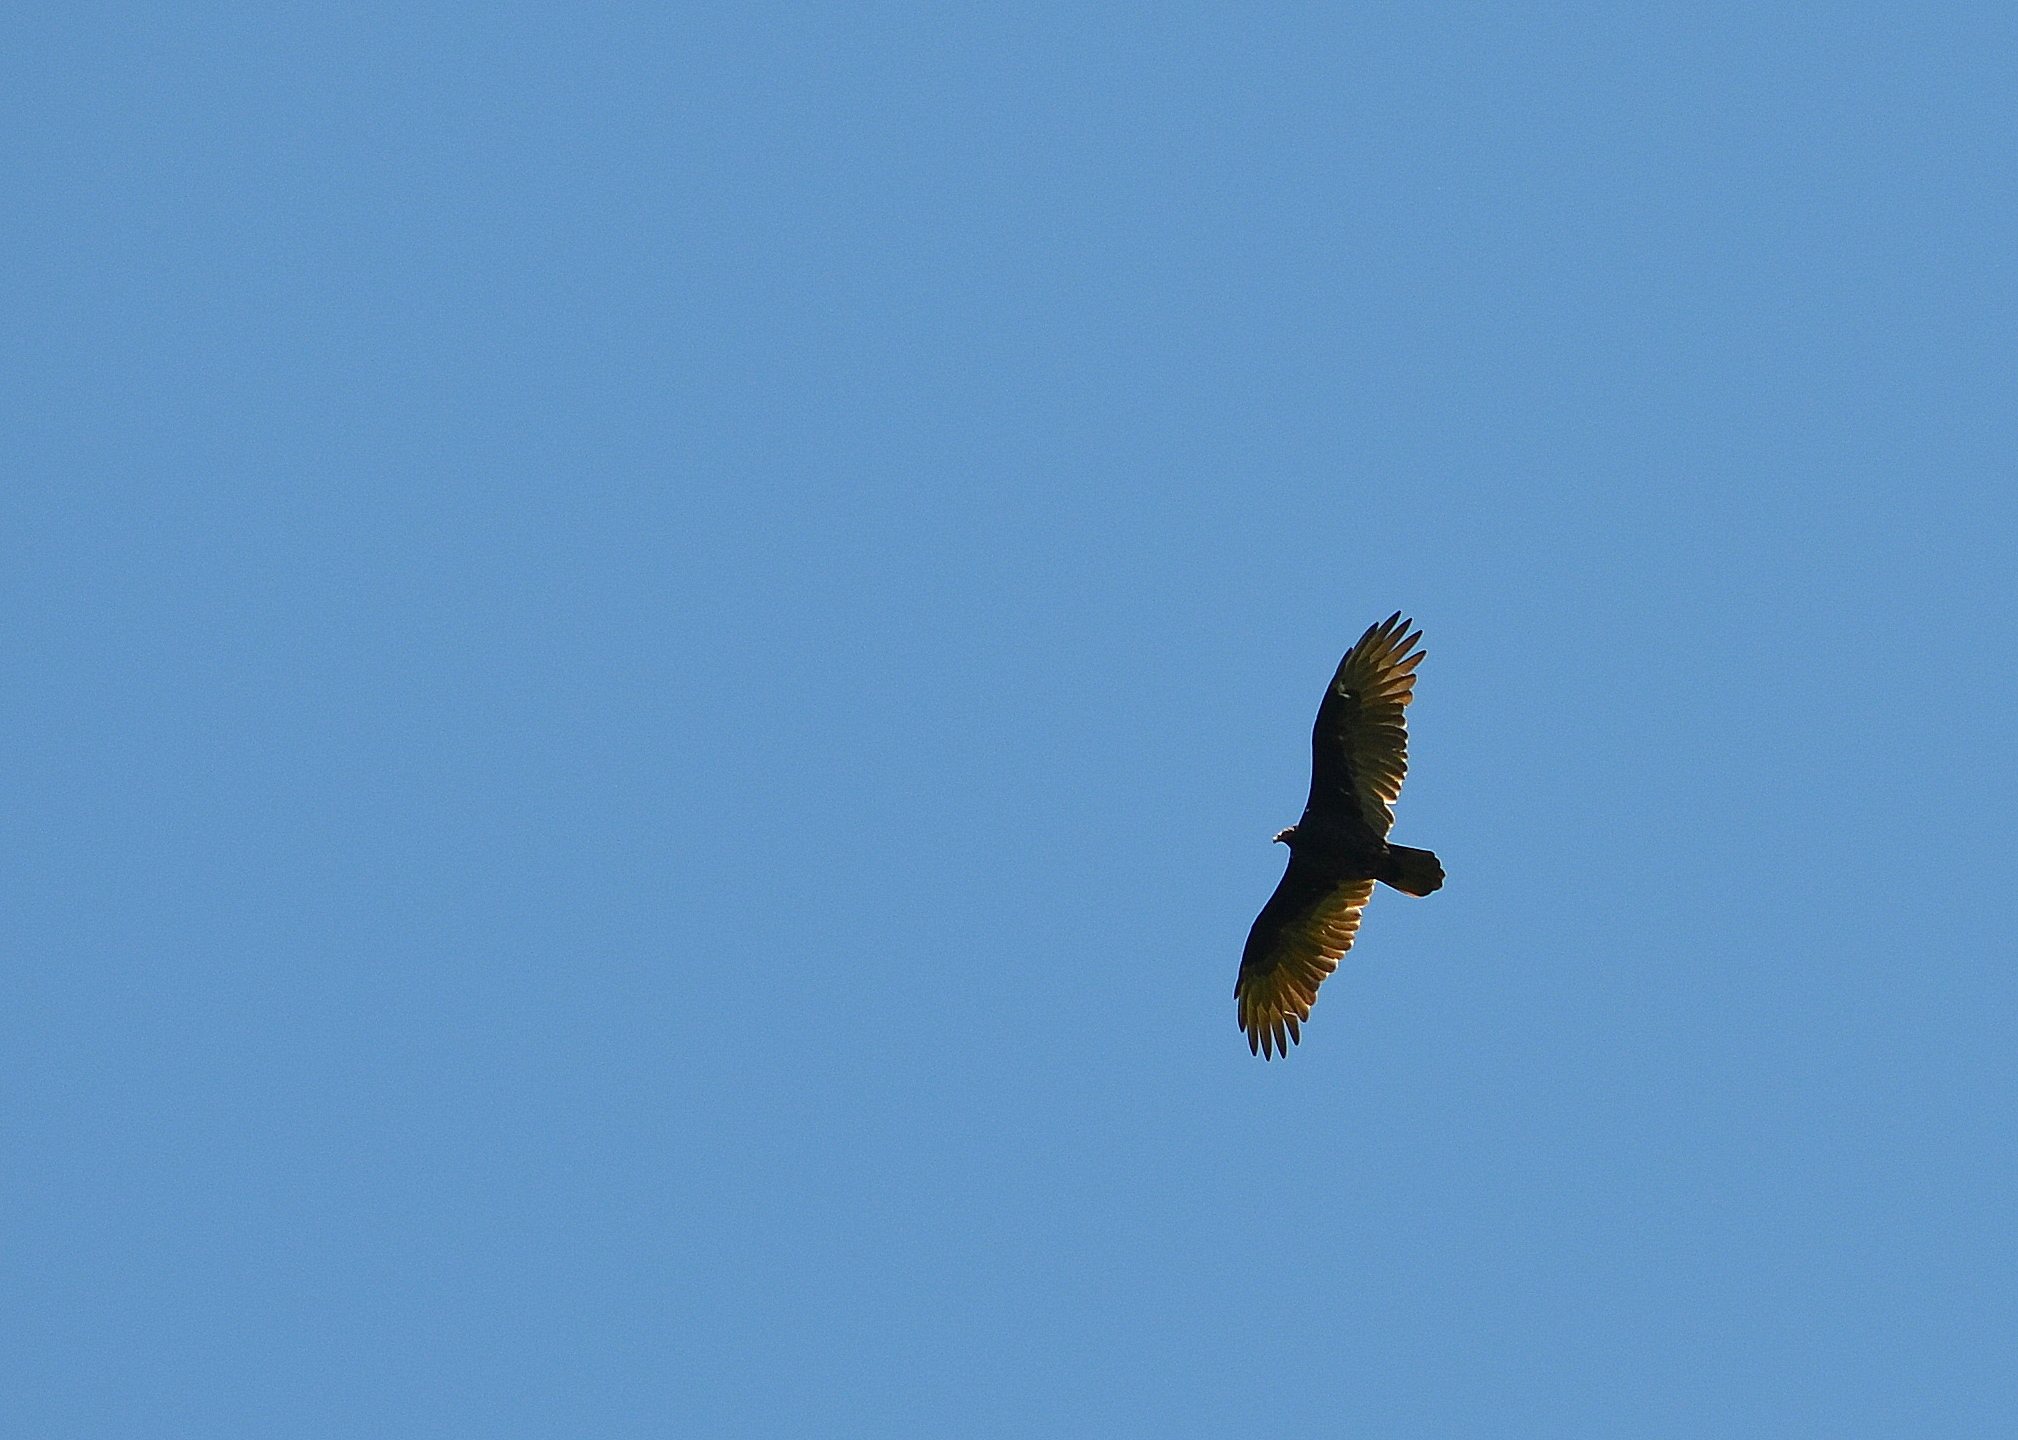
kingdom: Animalia
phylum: Chordata
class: Aves
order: Accipitriformes
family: Cathartidae
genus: Cathartes
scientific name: Cathartes aura
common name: Turkey vulture
